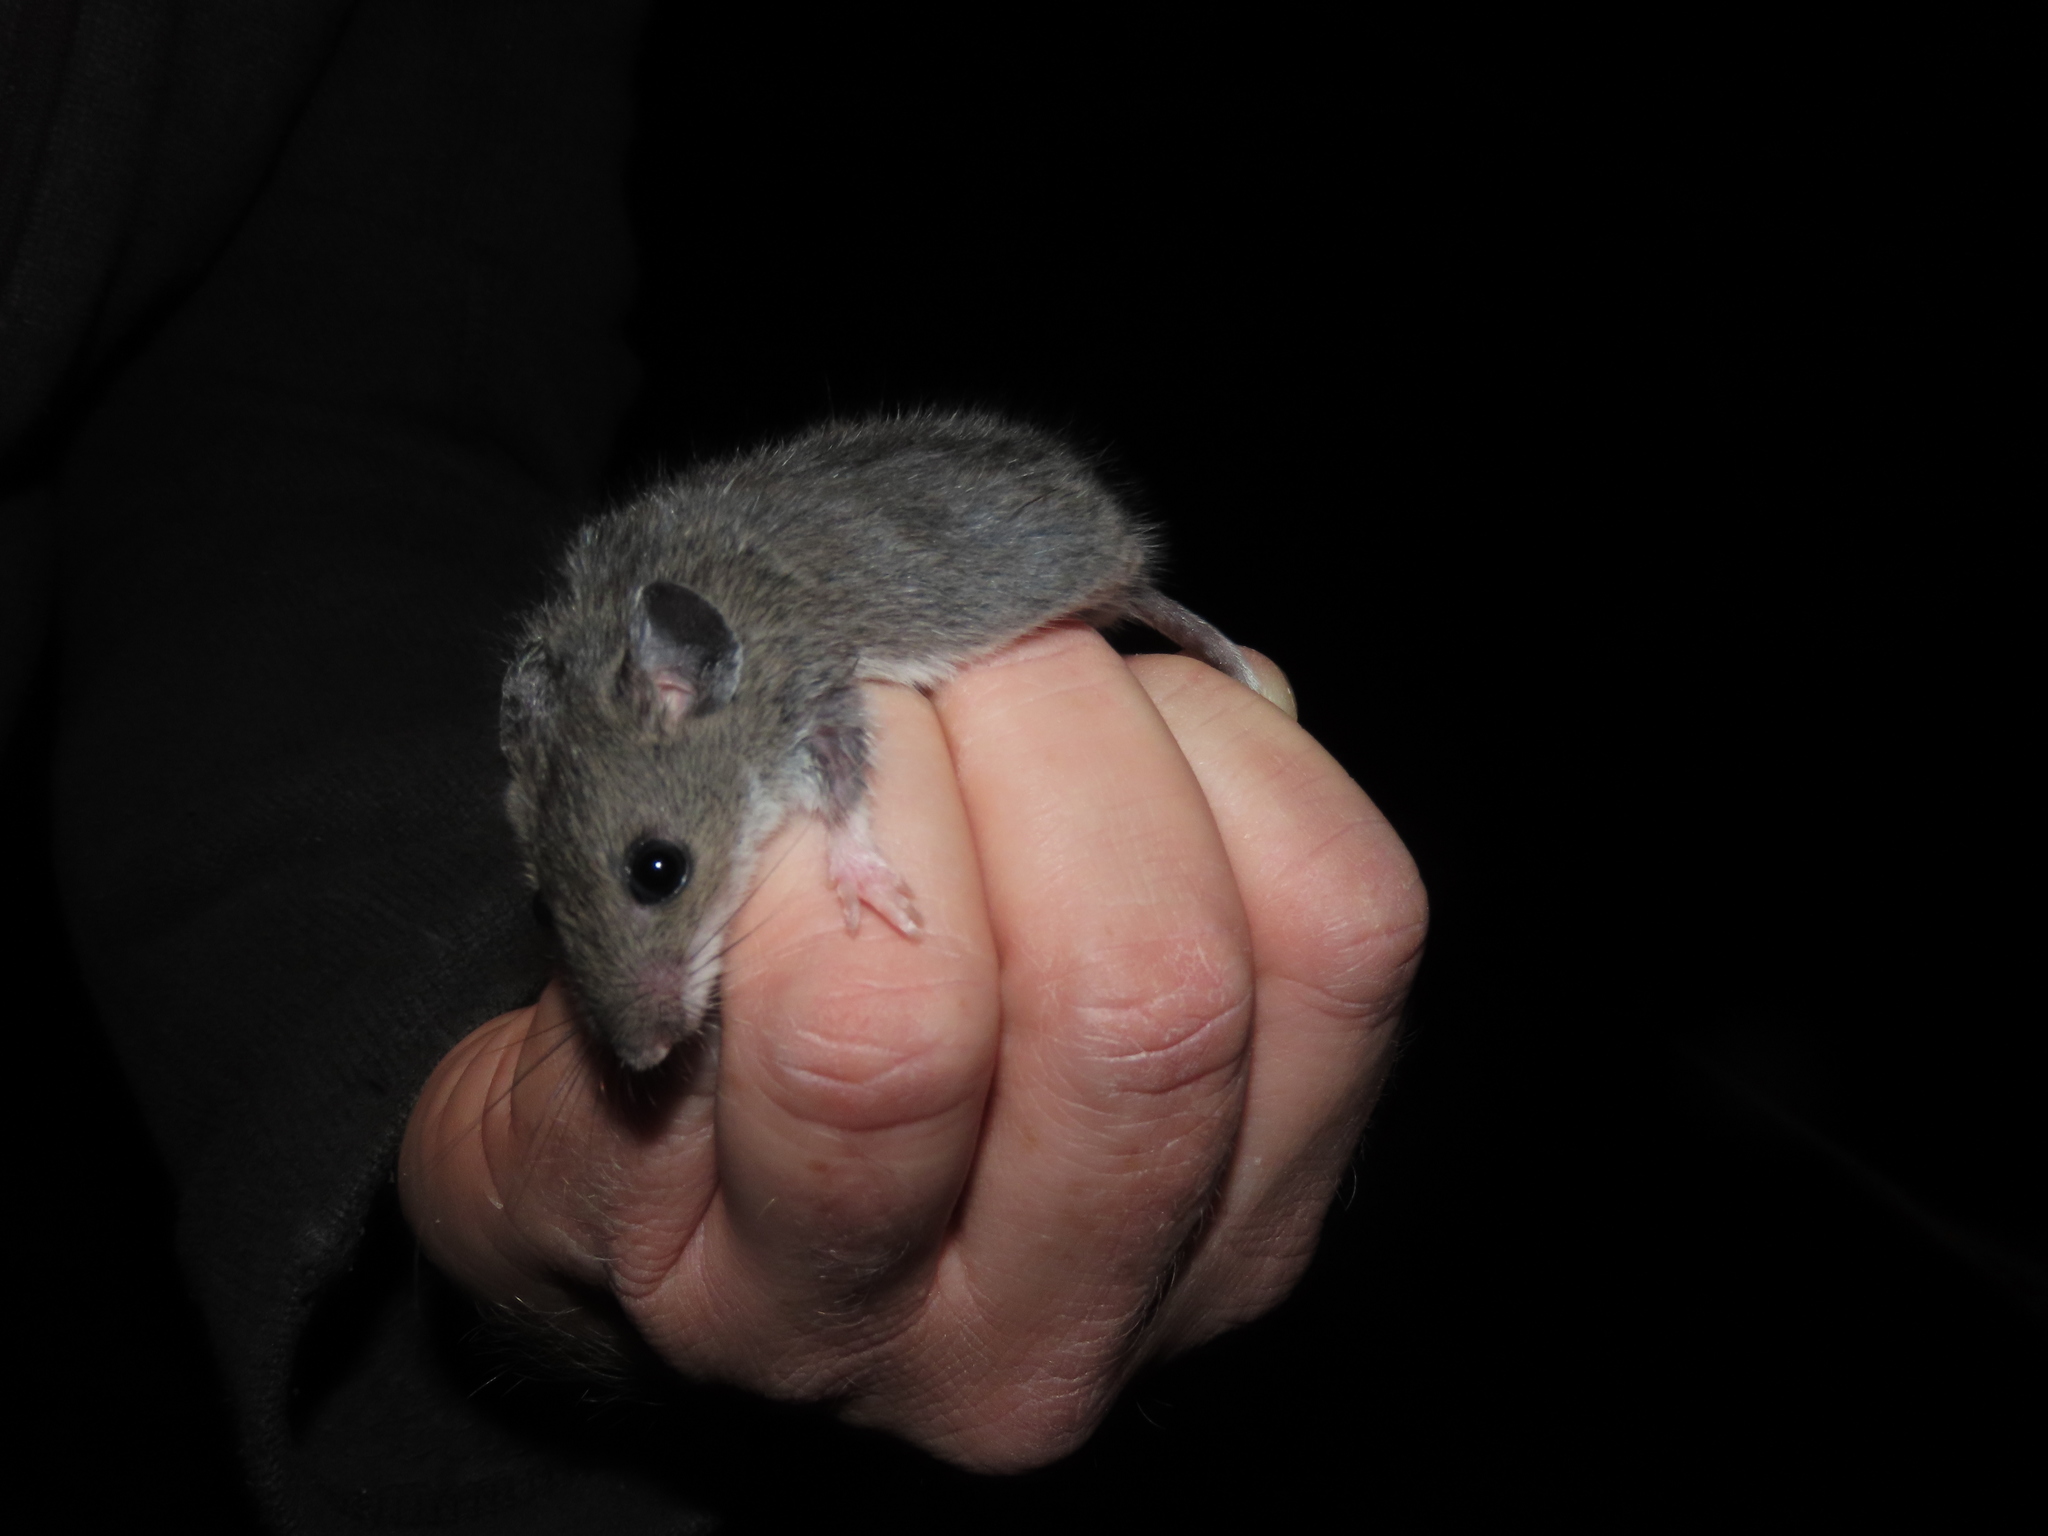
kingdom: Animalia
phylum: Chordata
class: Mammalia
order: Rodentia
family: Cricetidae
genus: Peromyscus
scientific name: Peromyscus leucopus
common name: White-footed deermouse
